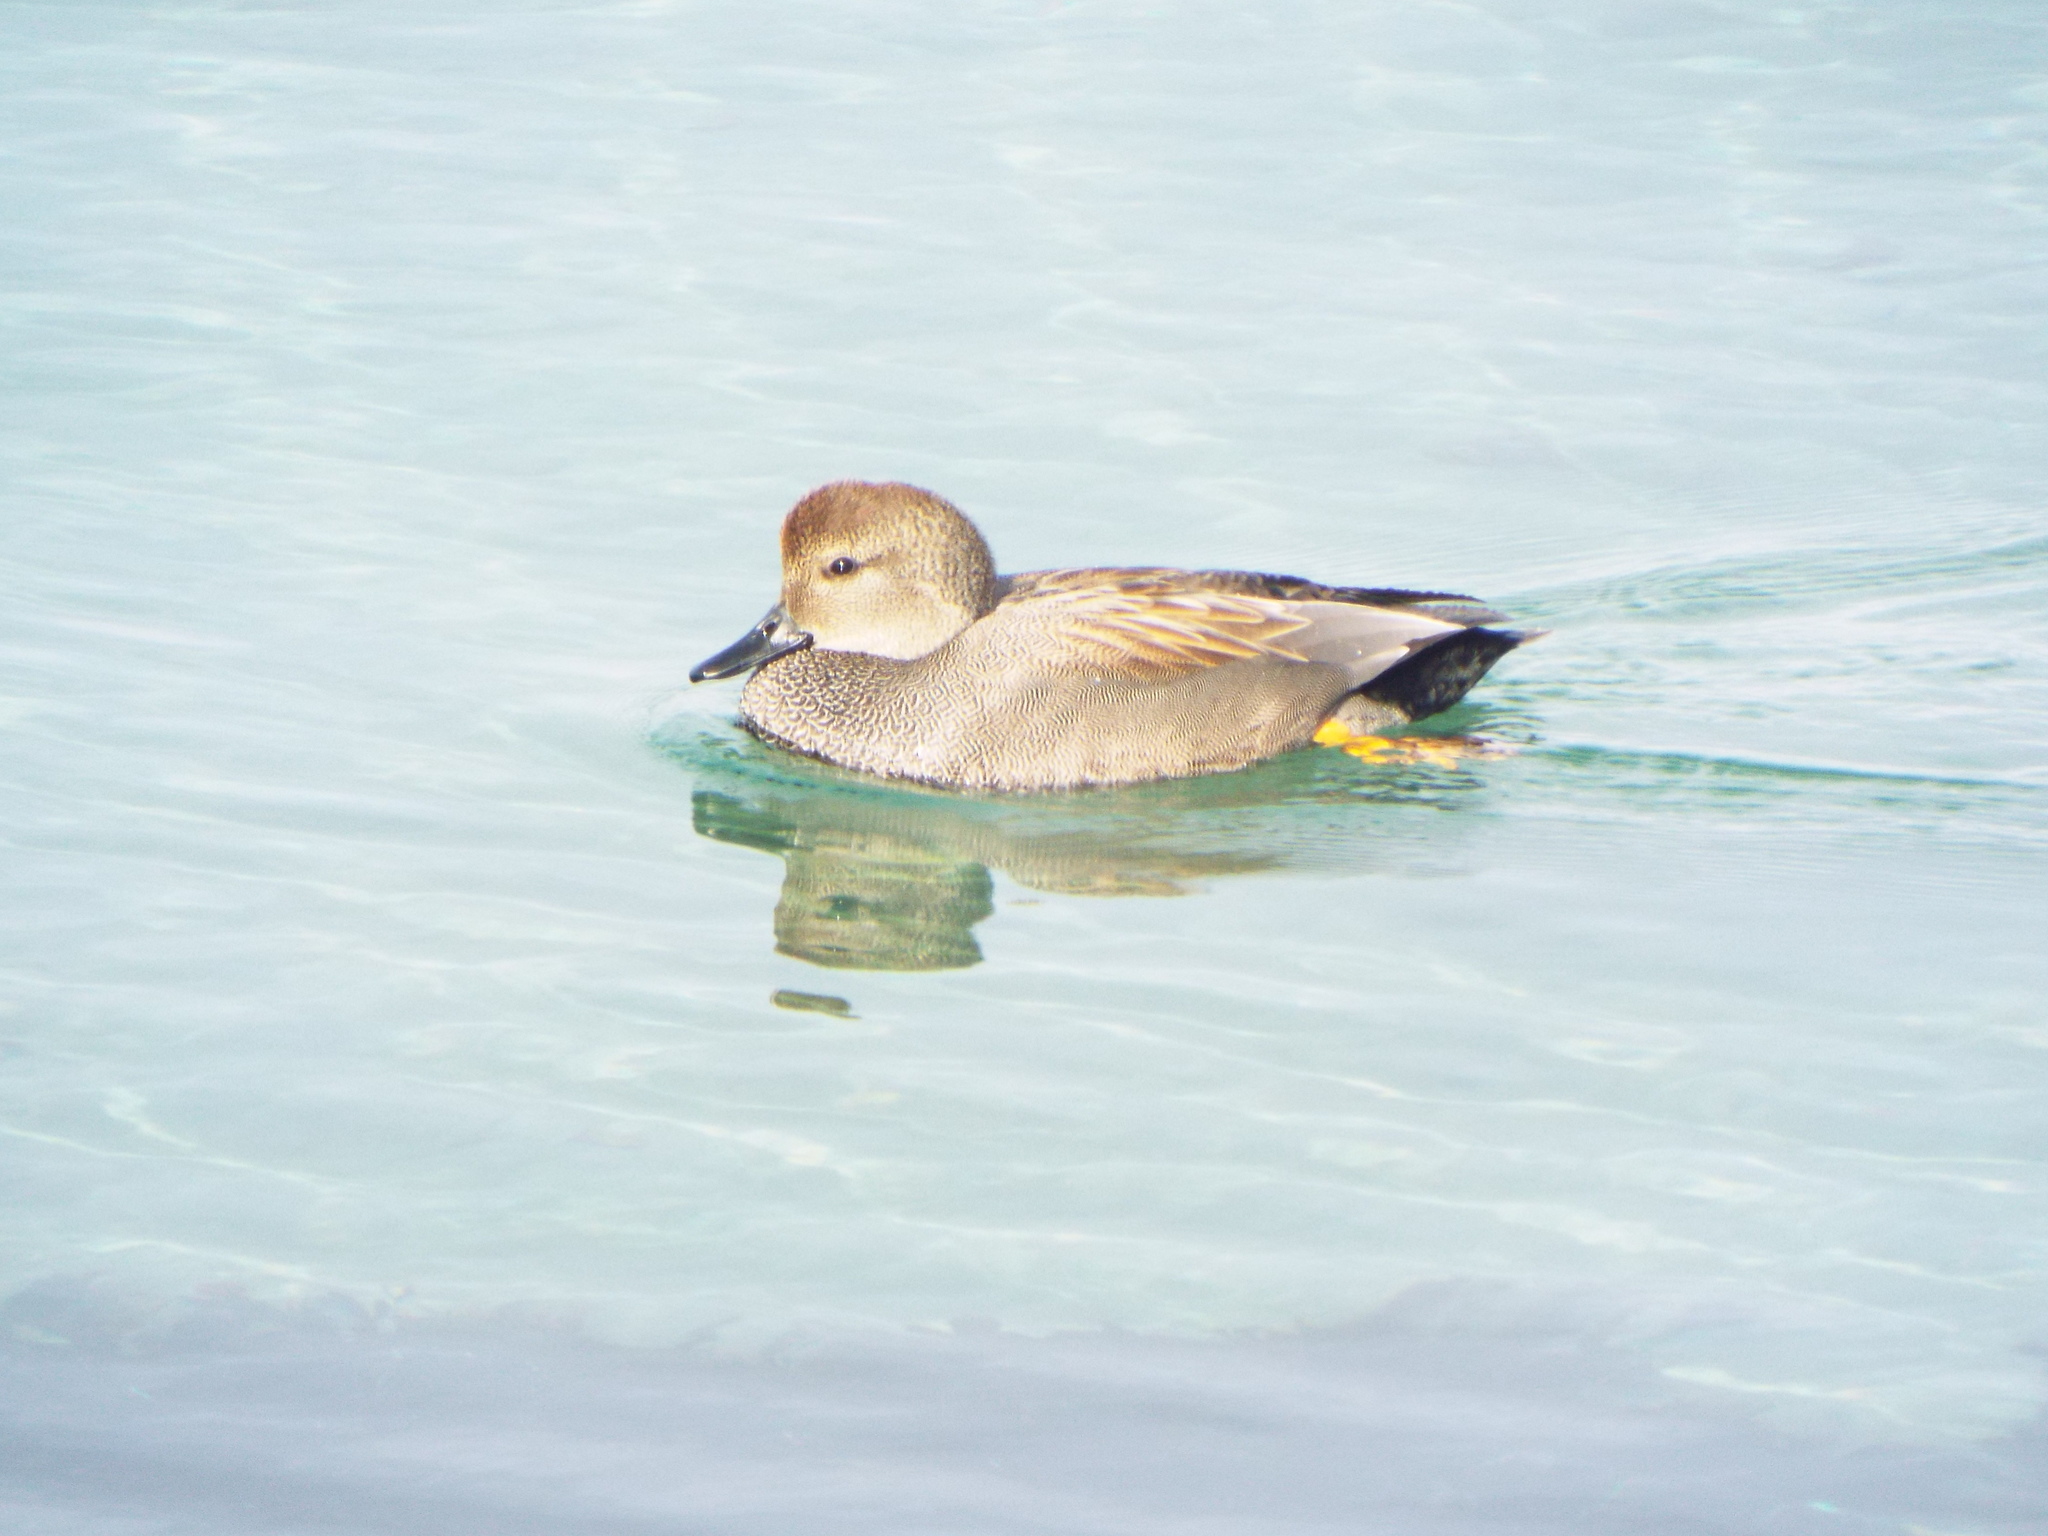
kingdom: Animalia
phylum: Chordata
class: Aves
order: Anseriformes
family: Anatidae
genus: Mareca
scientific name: Mareca strepera
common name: Gadwall
